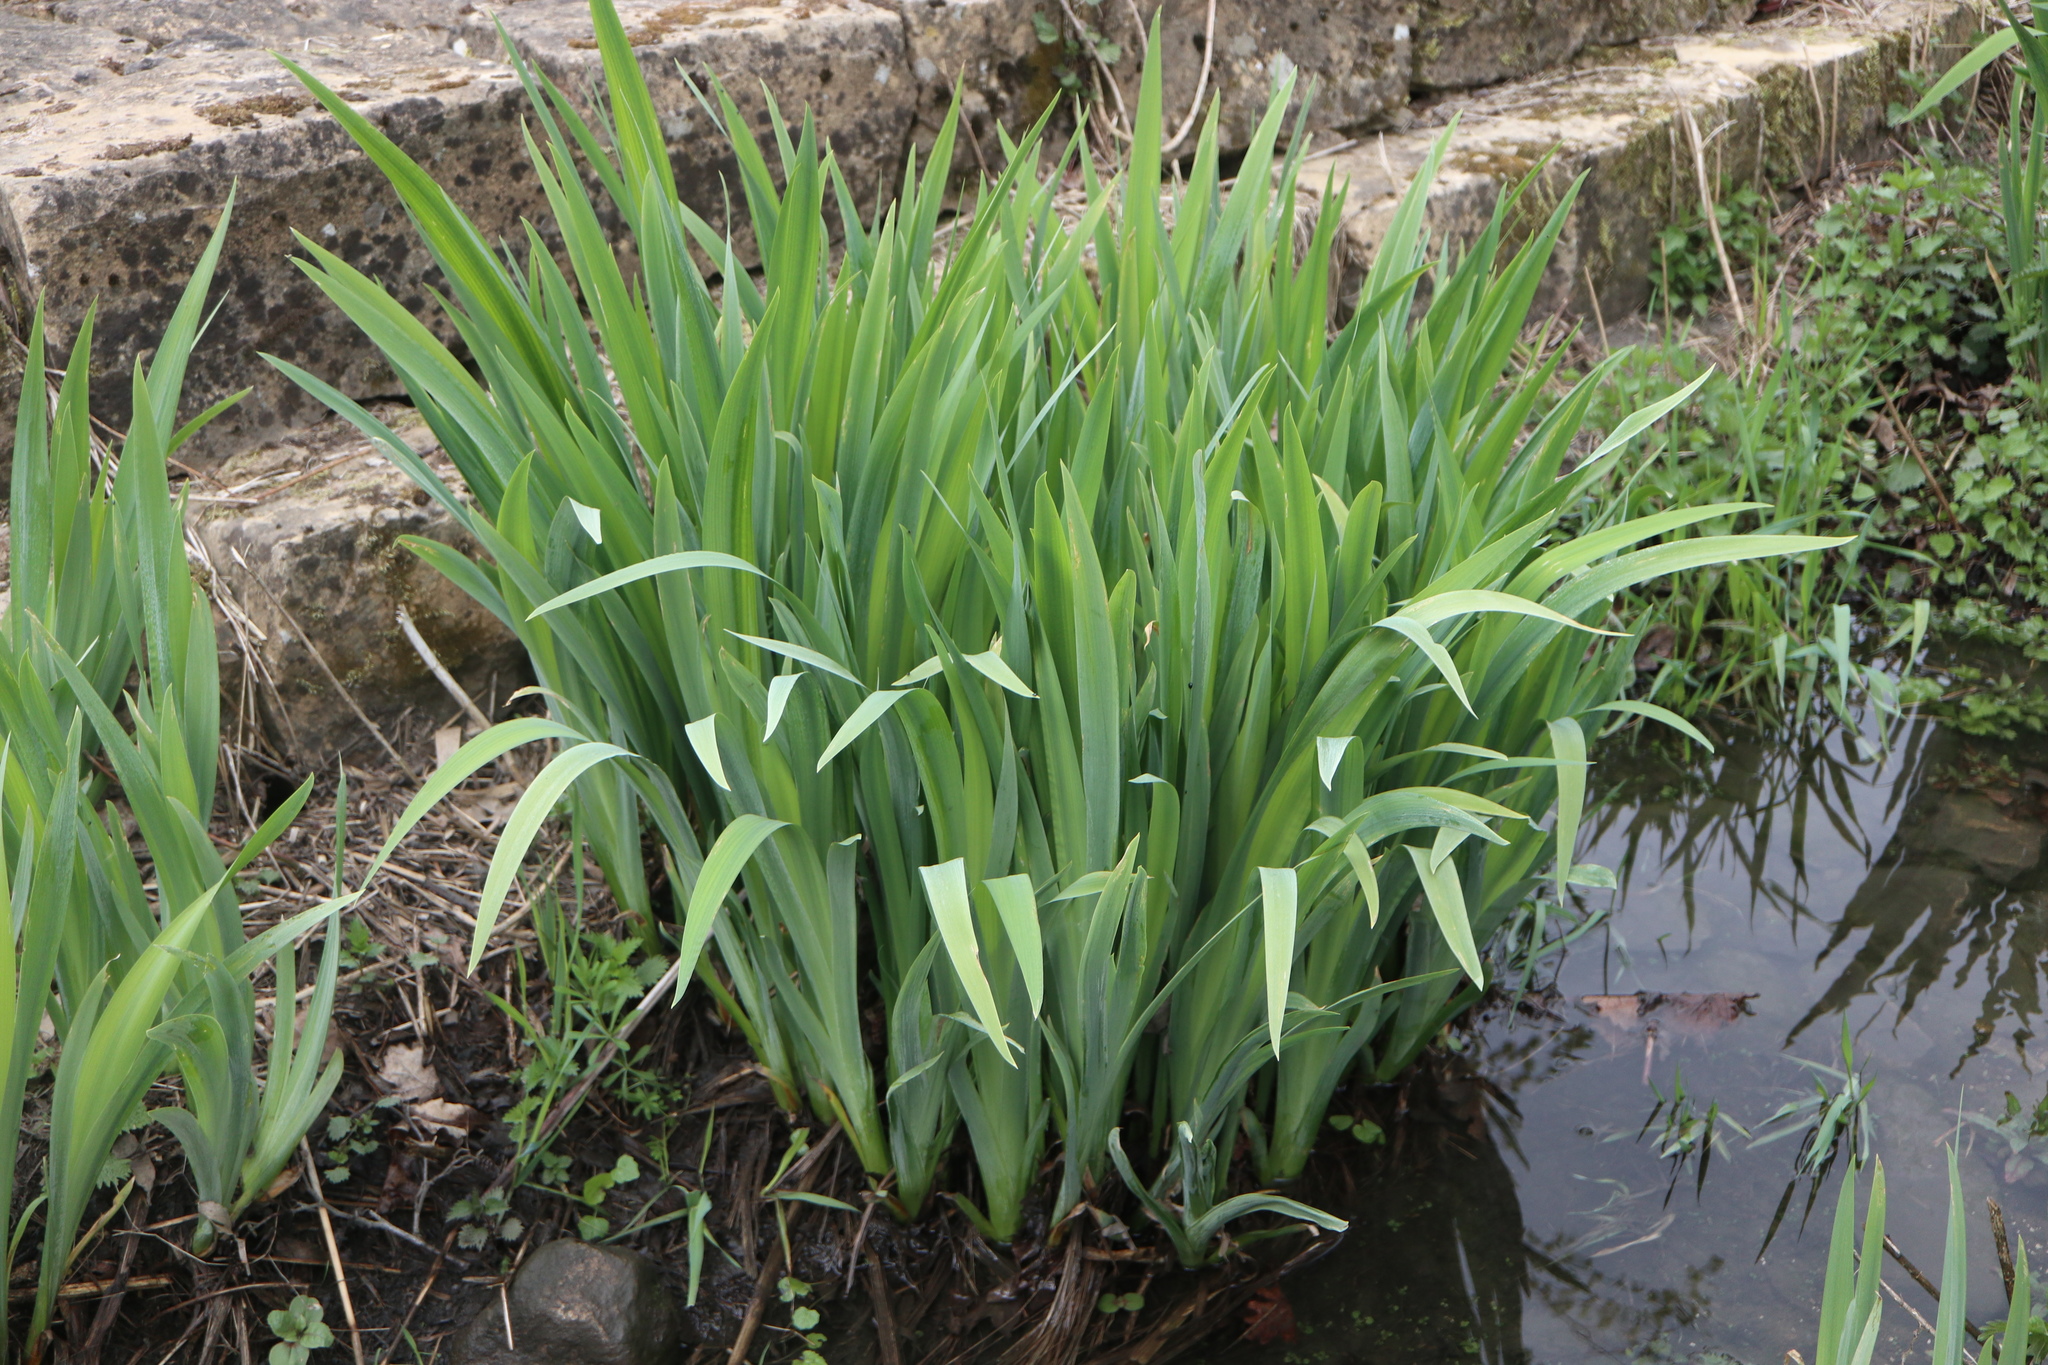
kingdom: Plantae
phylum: Tracheophyta
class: Liliopsida
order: Asparagales
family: Iridaceae
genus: Iris
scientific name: Iris pseudacorus
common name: Yellow flag
